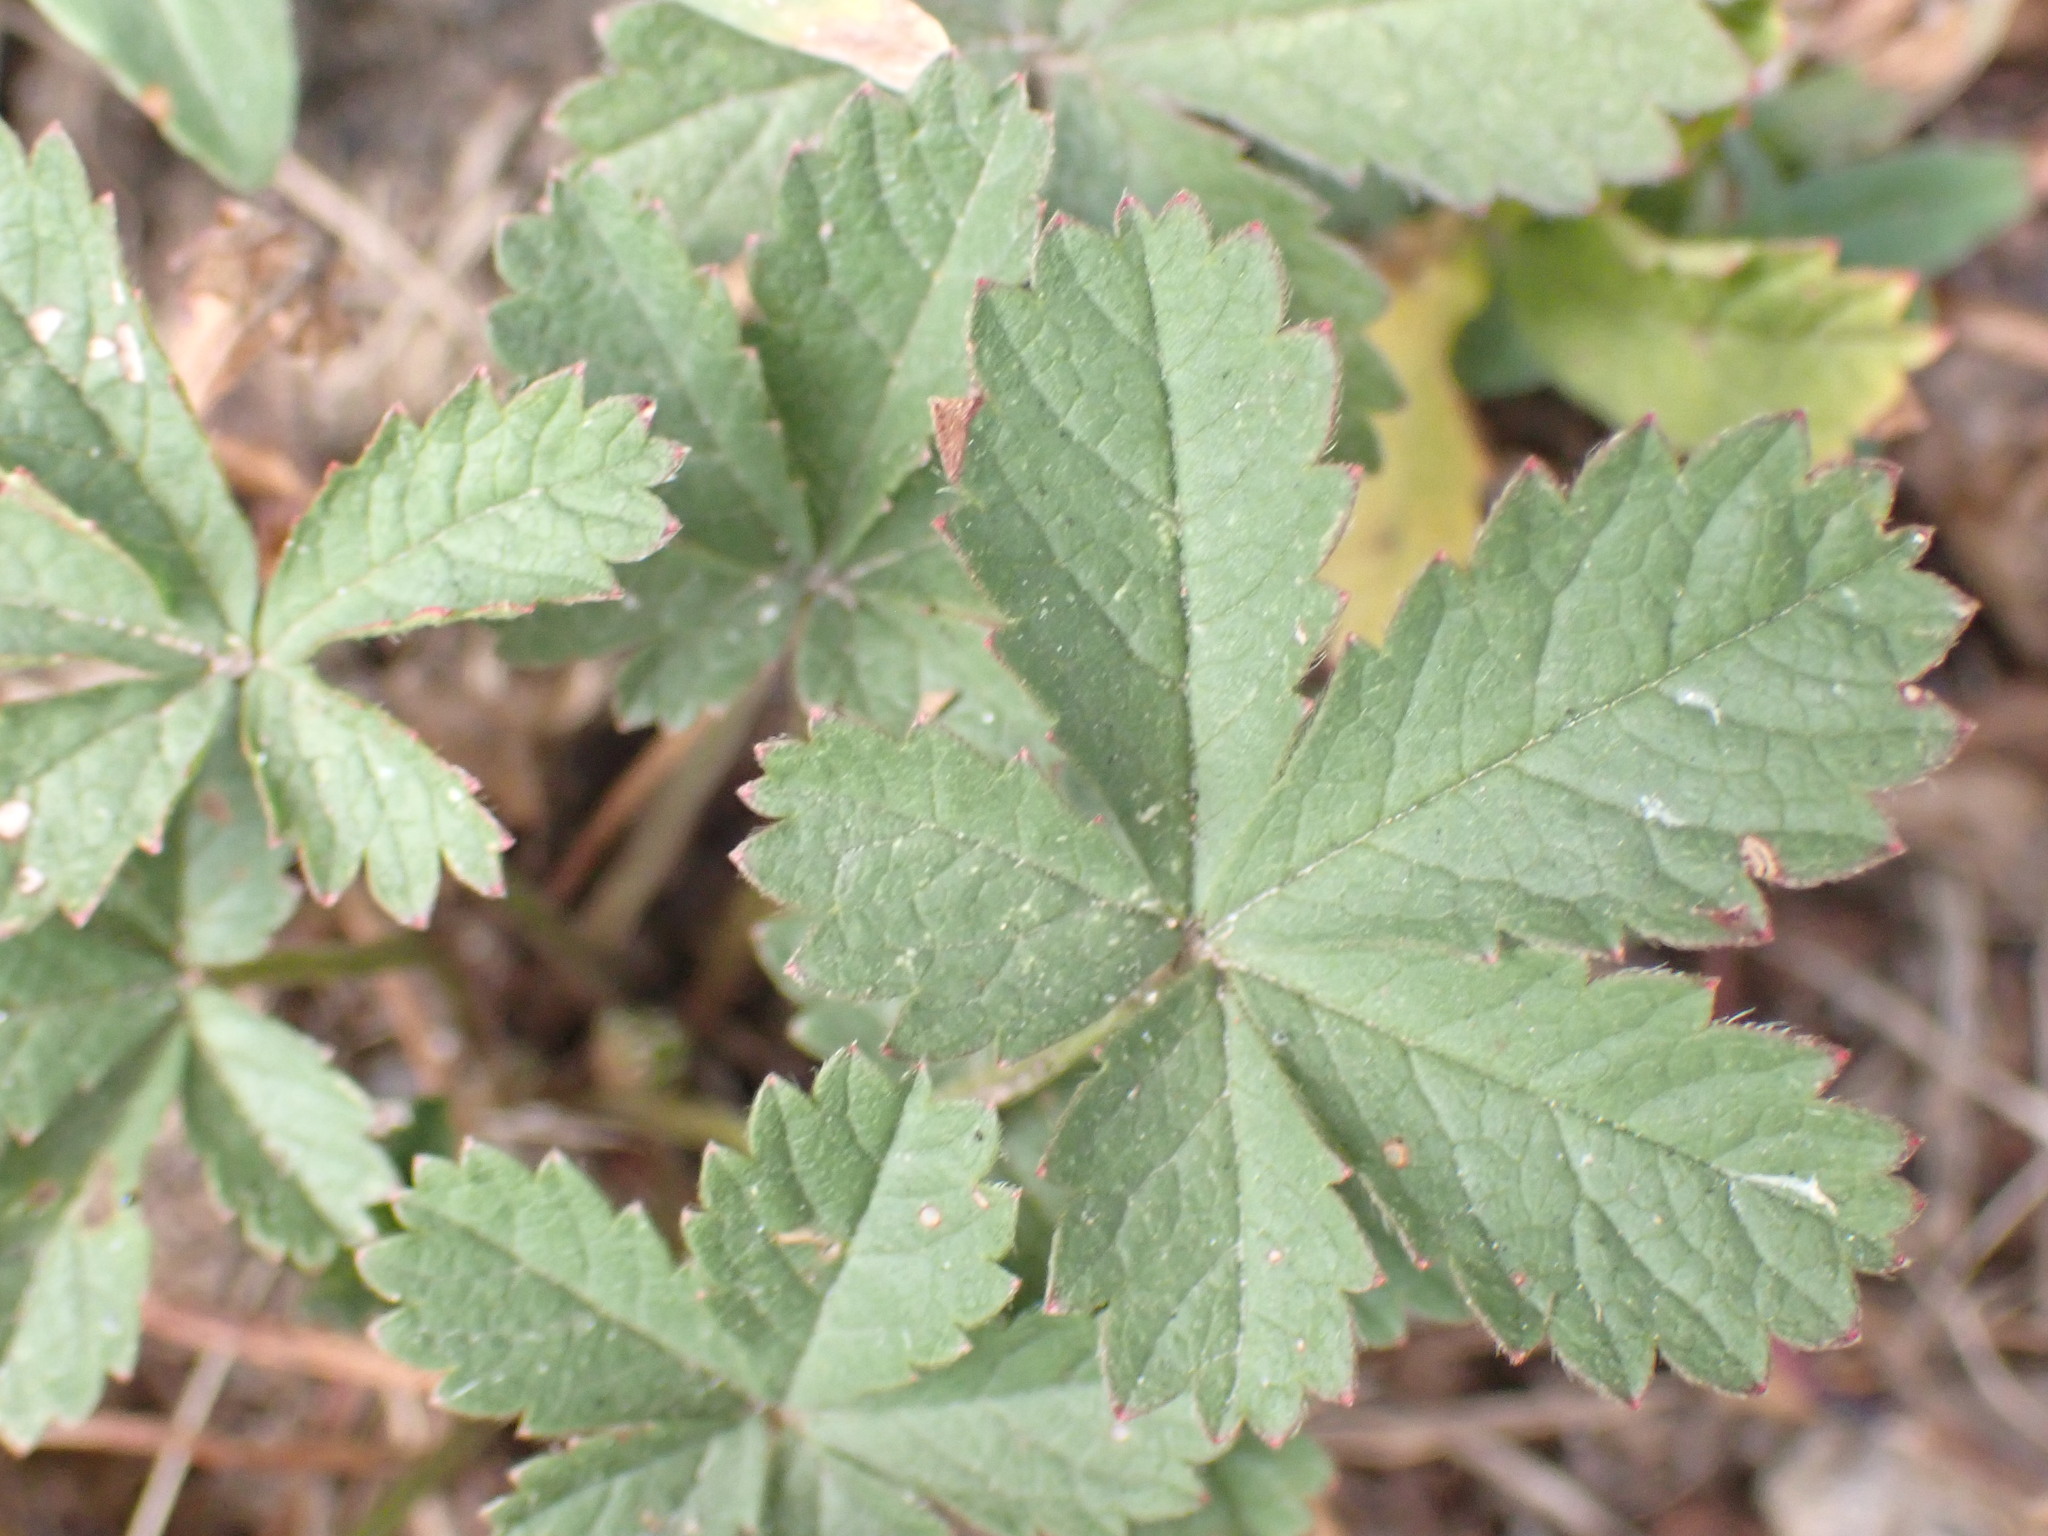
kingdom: Plantae
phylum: Tracheophyta
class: Magnoliopsida
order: Rosales
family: Rosaceae
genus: Potentilla
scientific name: Potentilla reptans
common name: Creeping cinquefoil
